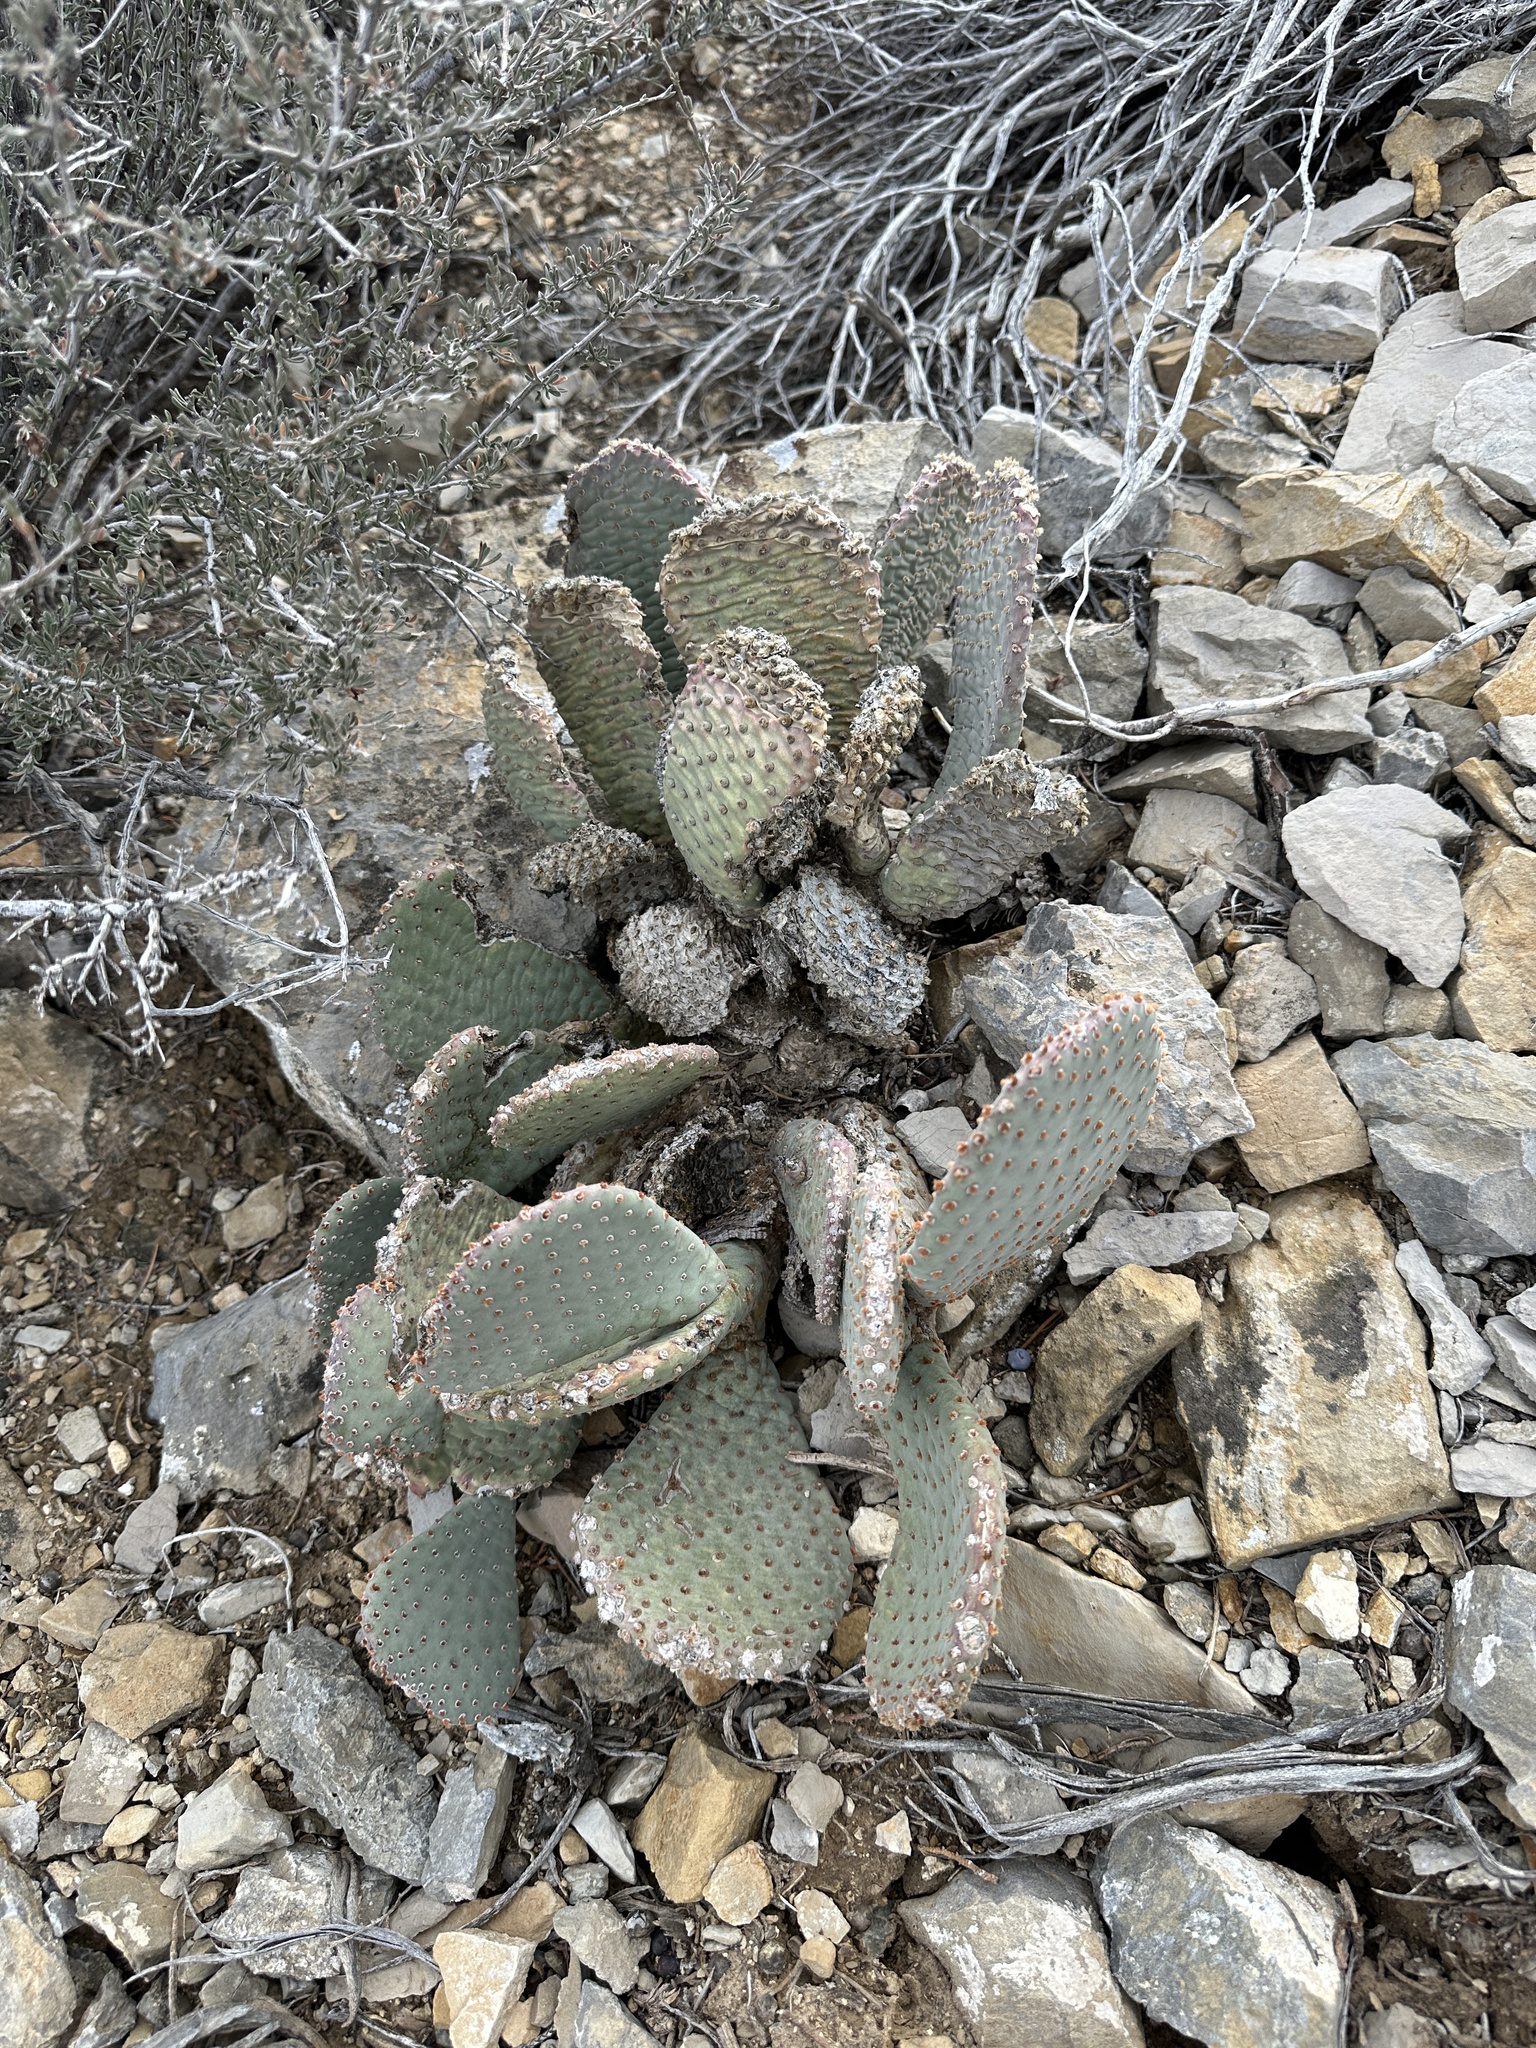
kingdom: Plantae
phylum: Tracheophyta
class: Magnoliopsida
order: Caryophyllales
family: Cactaceae
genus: Opuntia
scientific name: Opuntia basilaris
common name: Beavertail prickly-pear
